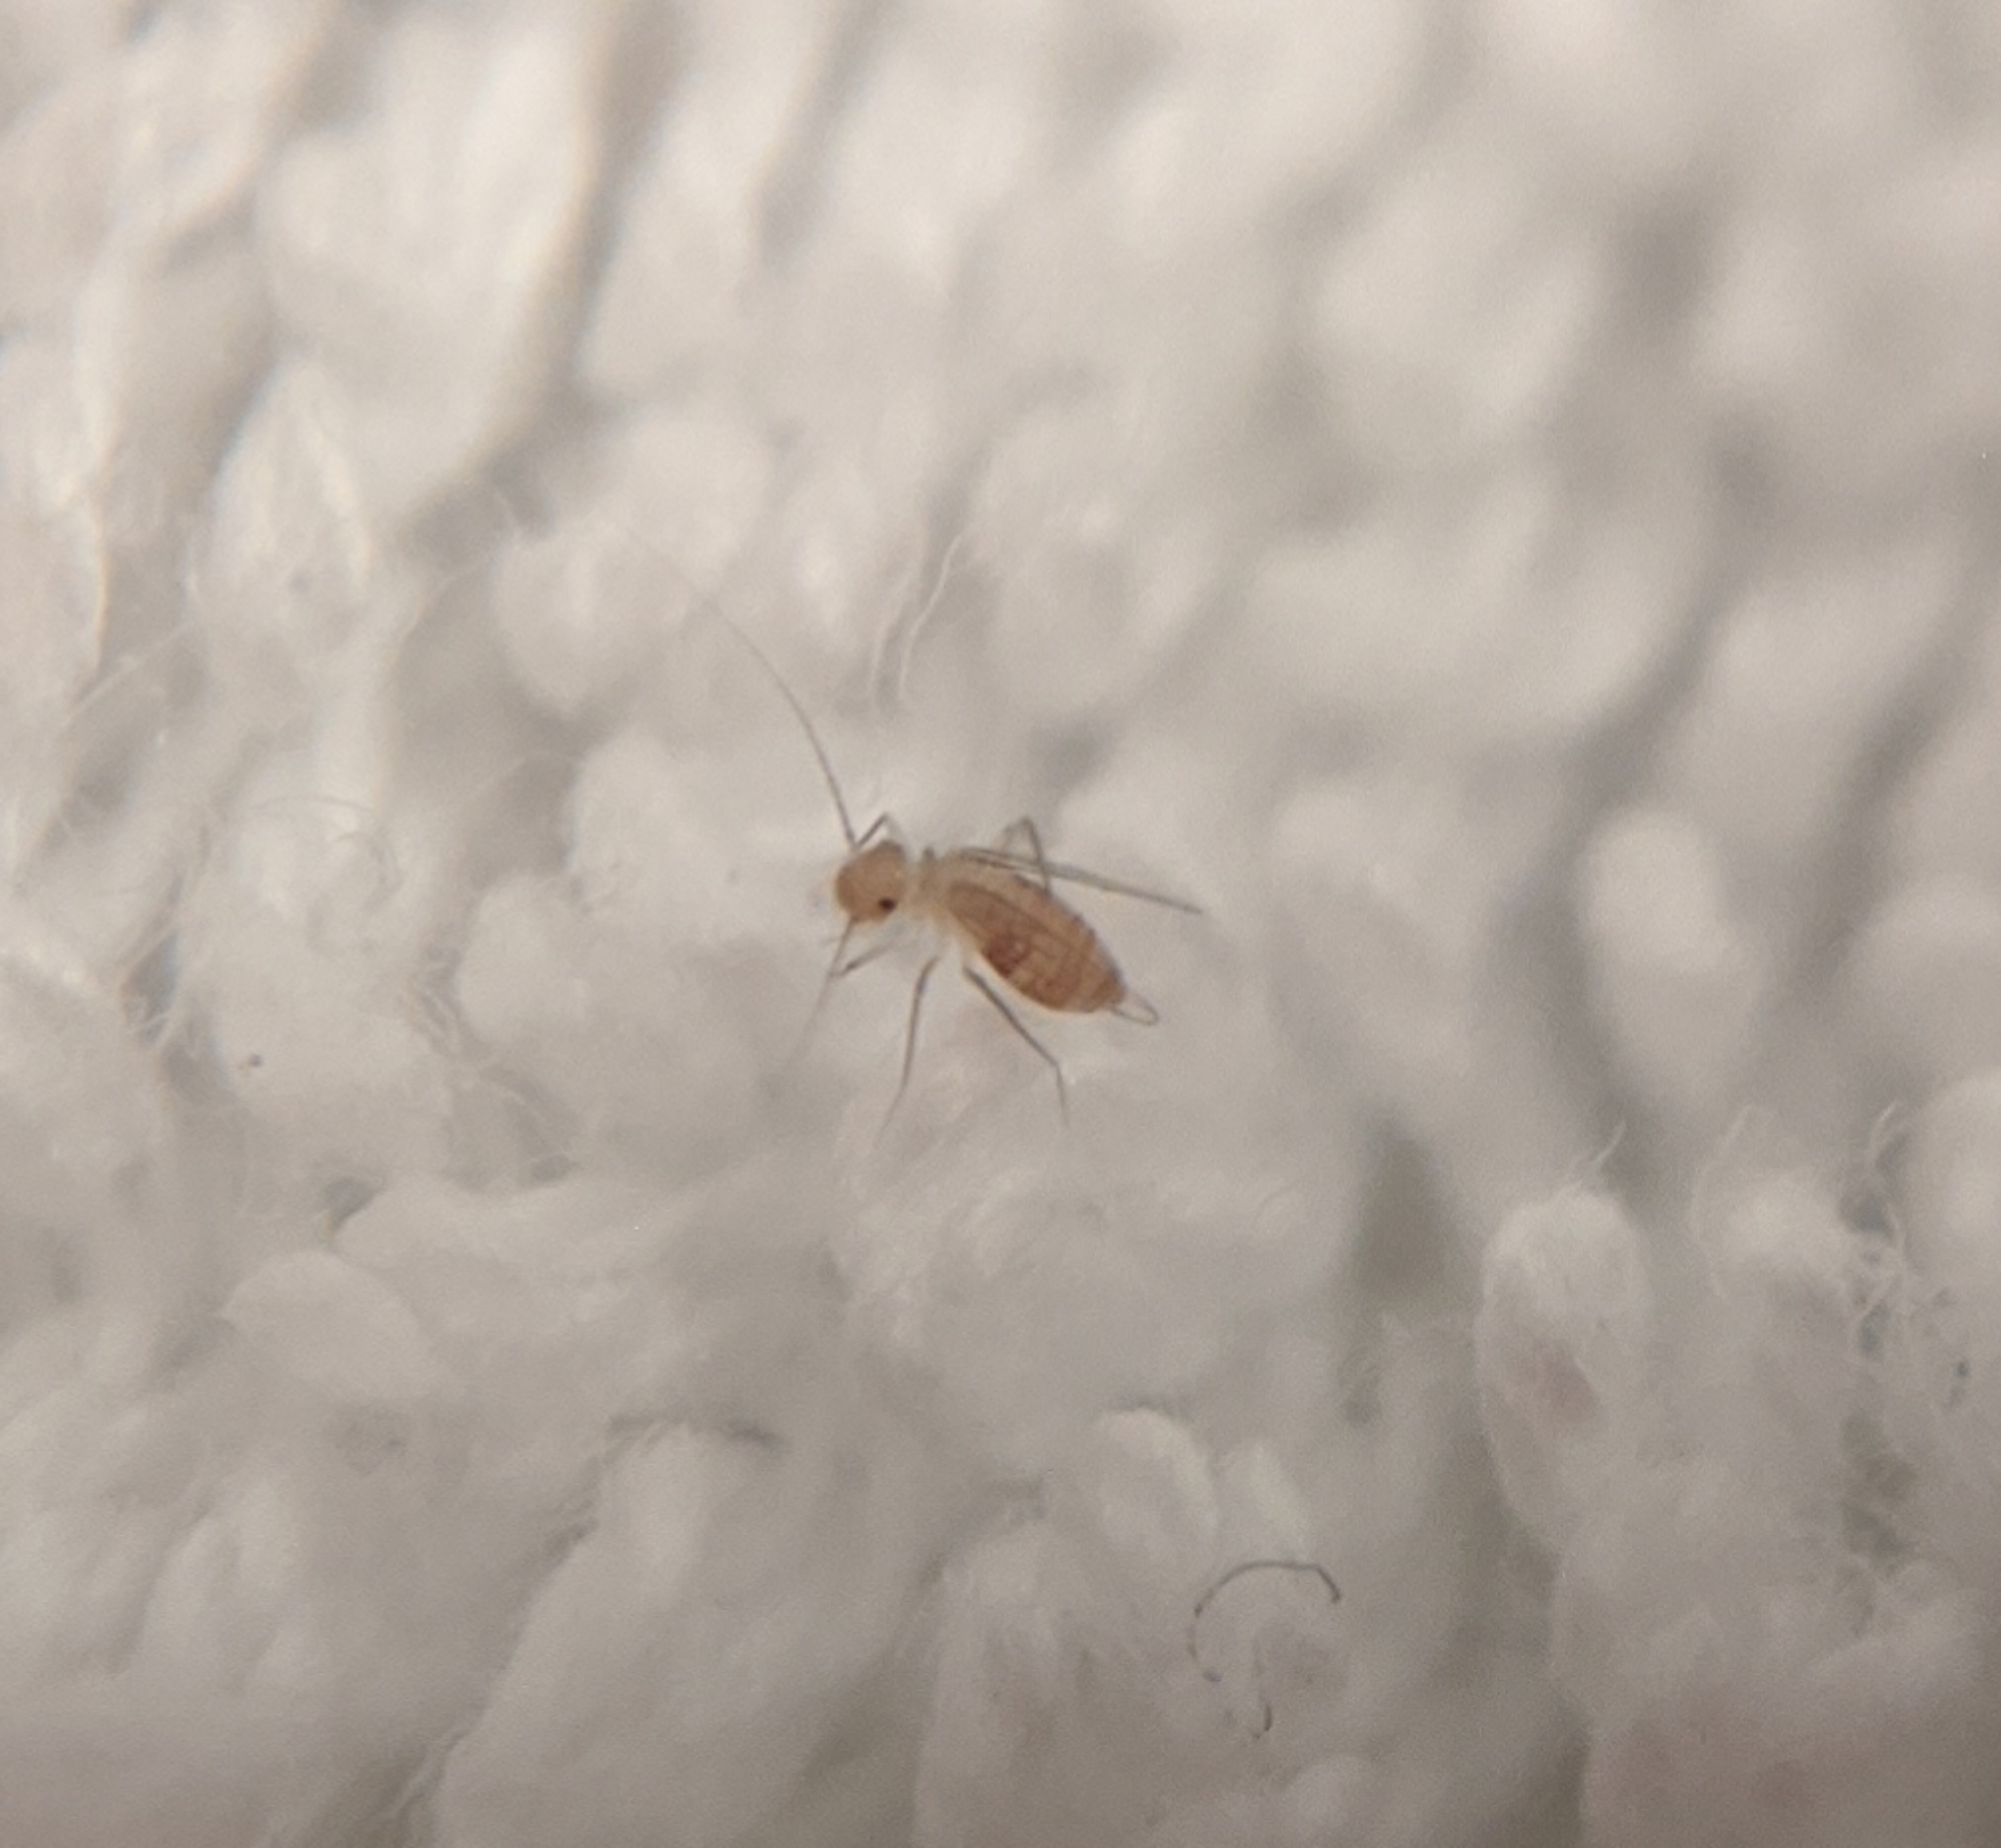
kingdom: Animalia
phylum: Arthropoda
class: Insecta
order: Psocodea
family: Psyllipsocidae
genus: Dorypteryx
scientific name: Dorypteryx domestica
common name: Cave barklouse
